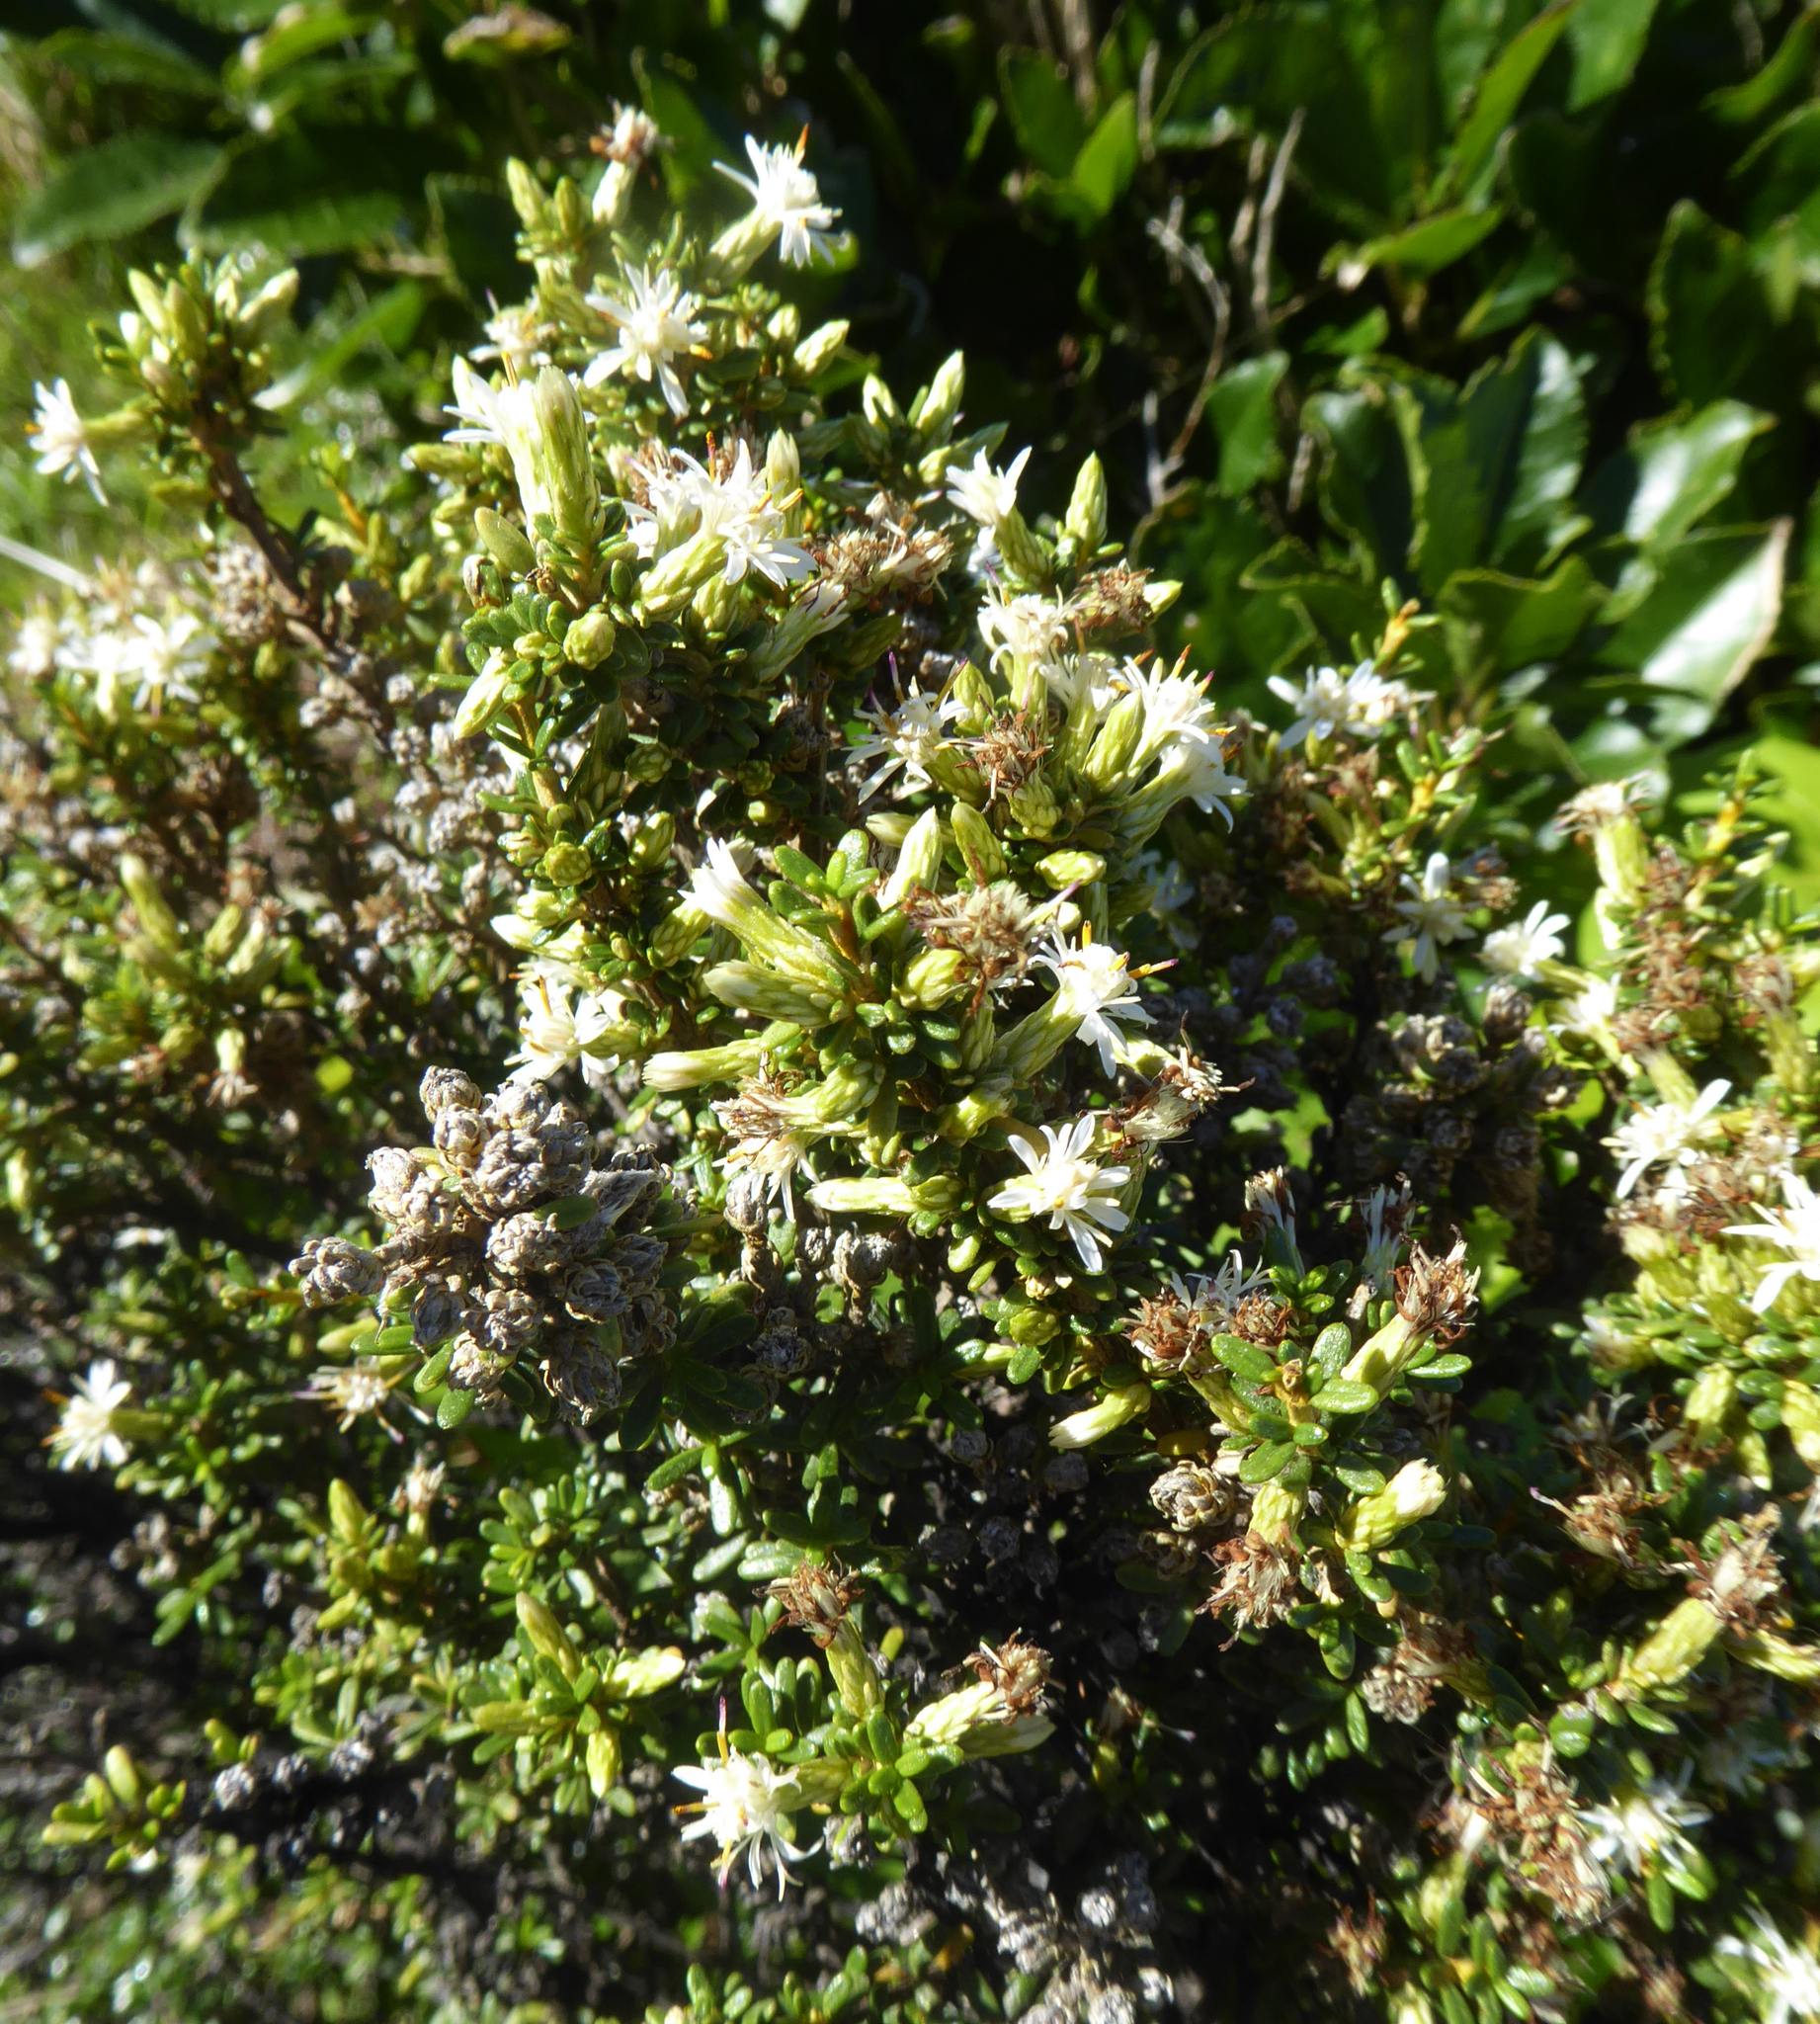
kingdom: Plantae
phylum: Tracheophyta
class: Magnoliopsida
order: Asterales
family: Asteraceae
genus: Olearia
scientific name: Olearia solandri
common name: Coastal daisybush
